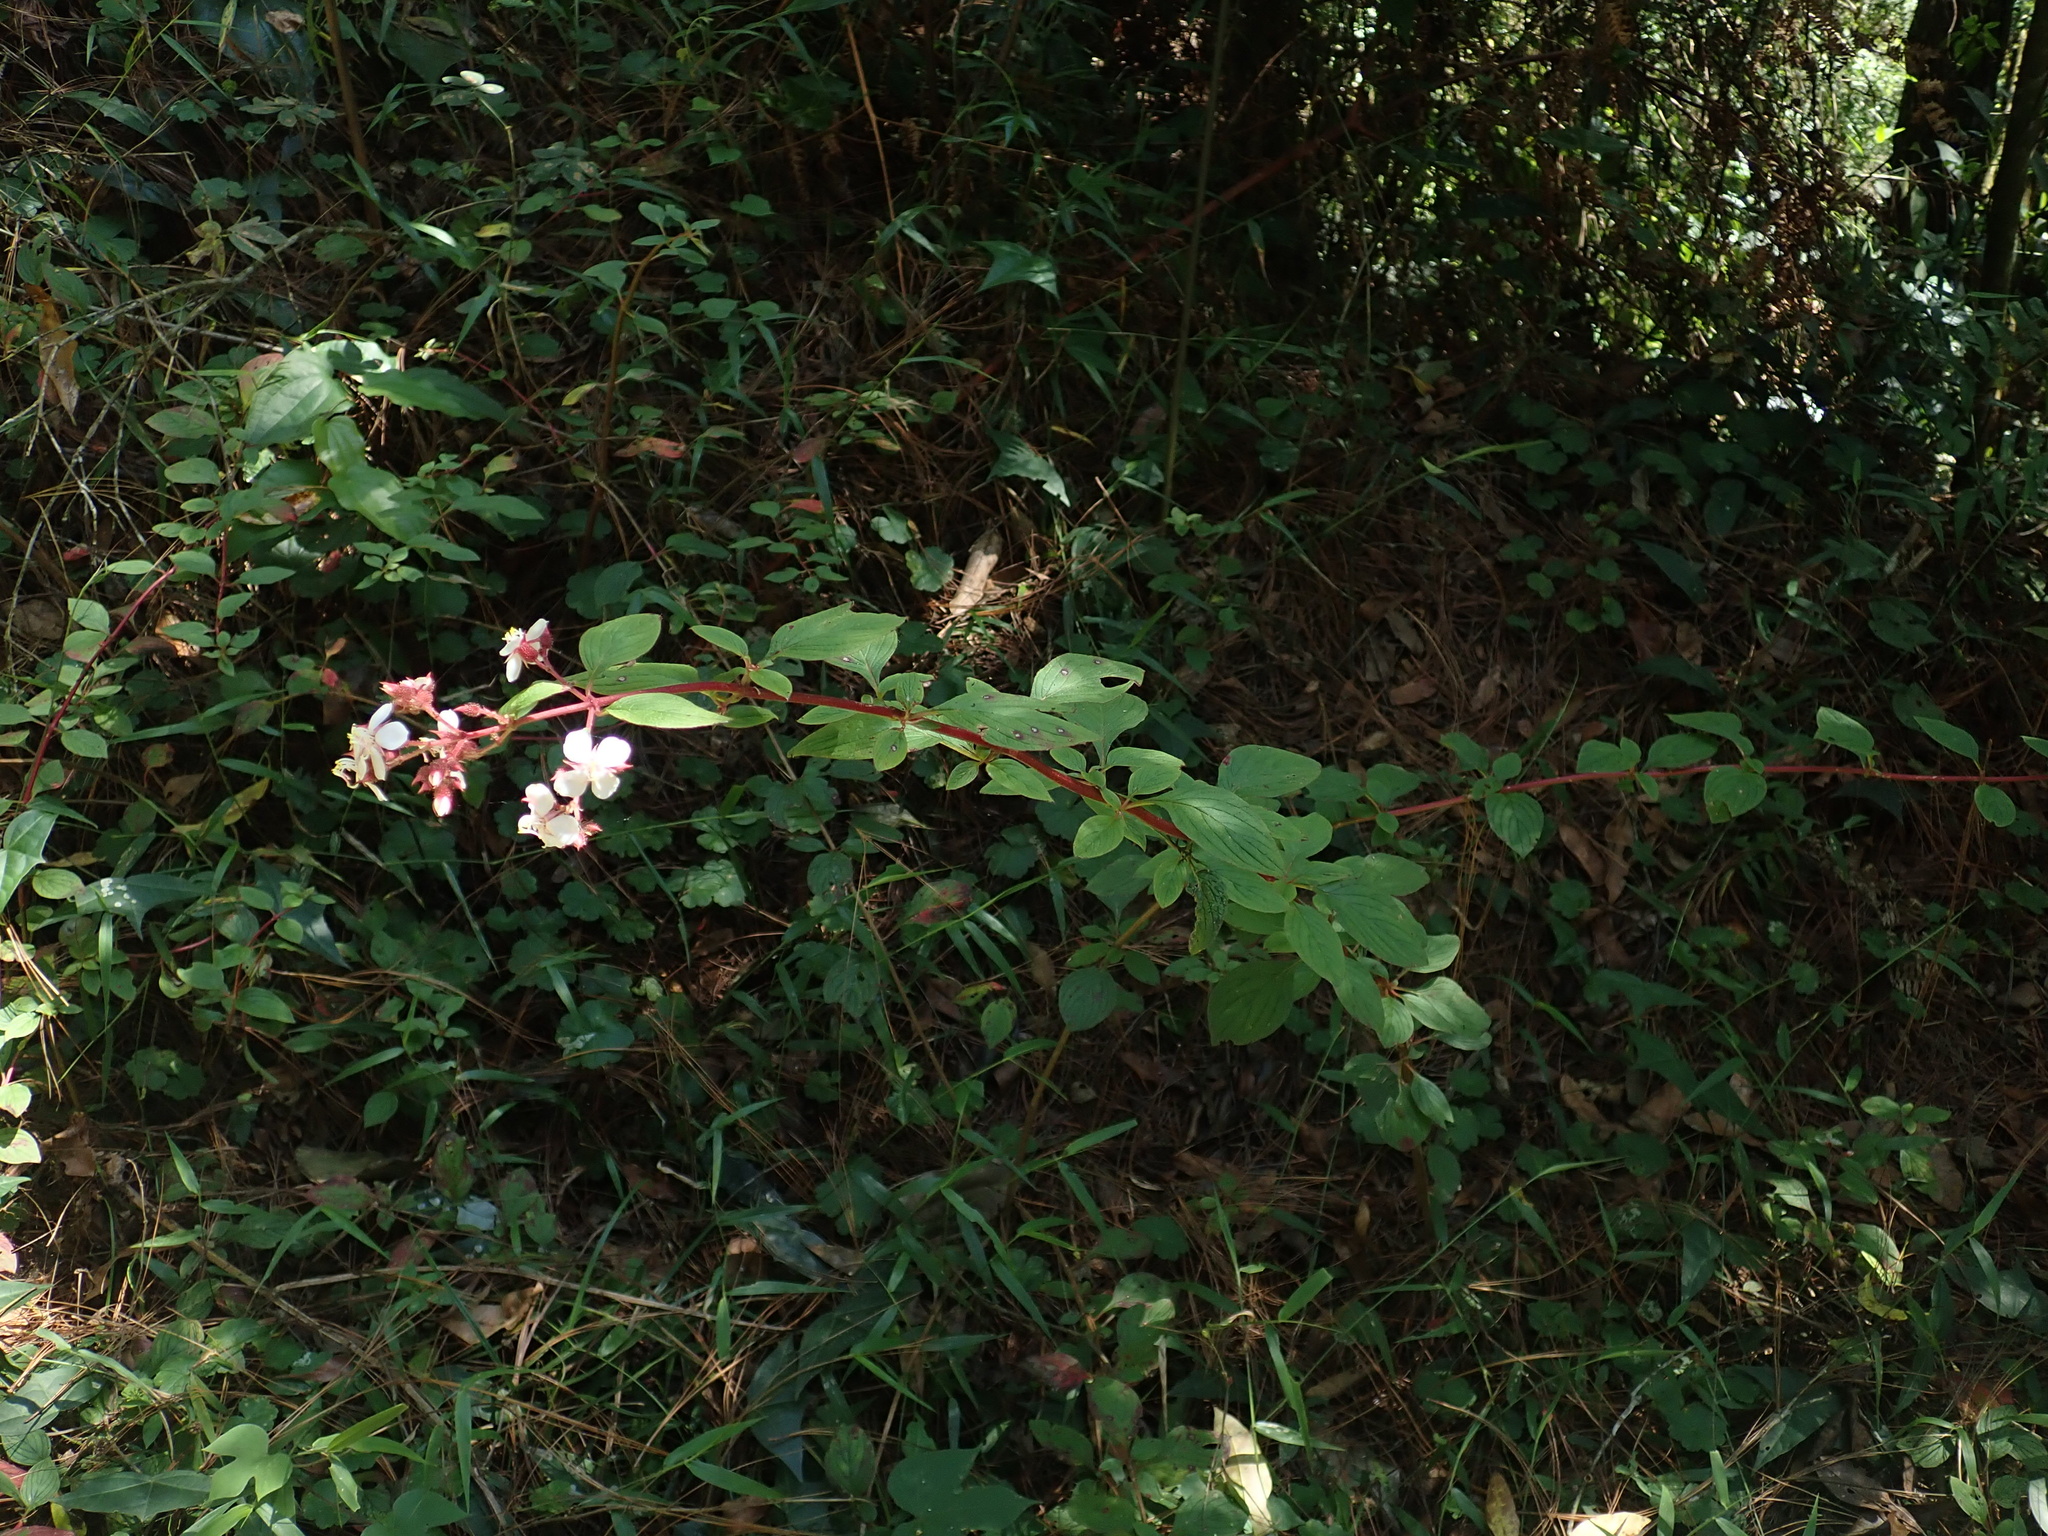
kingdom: Plantae
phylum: Tracheophyta
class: Magnoliopsida
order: Myrtales
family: Melastomataceae
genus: Heterocentron
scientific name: Heterocentron subtriplinervium
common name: Pearl flower
